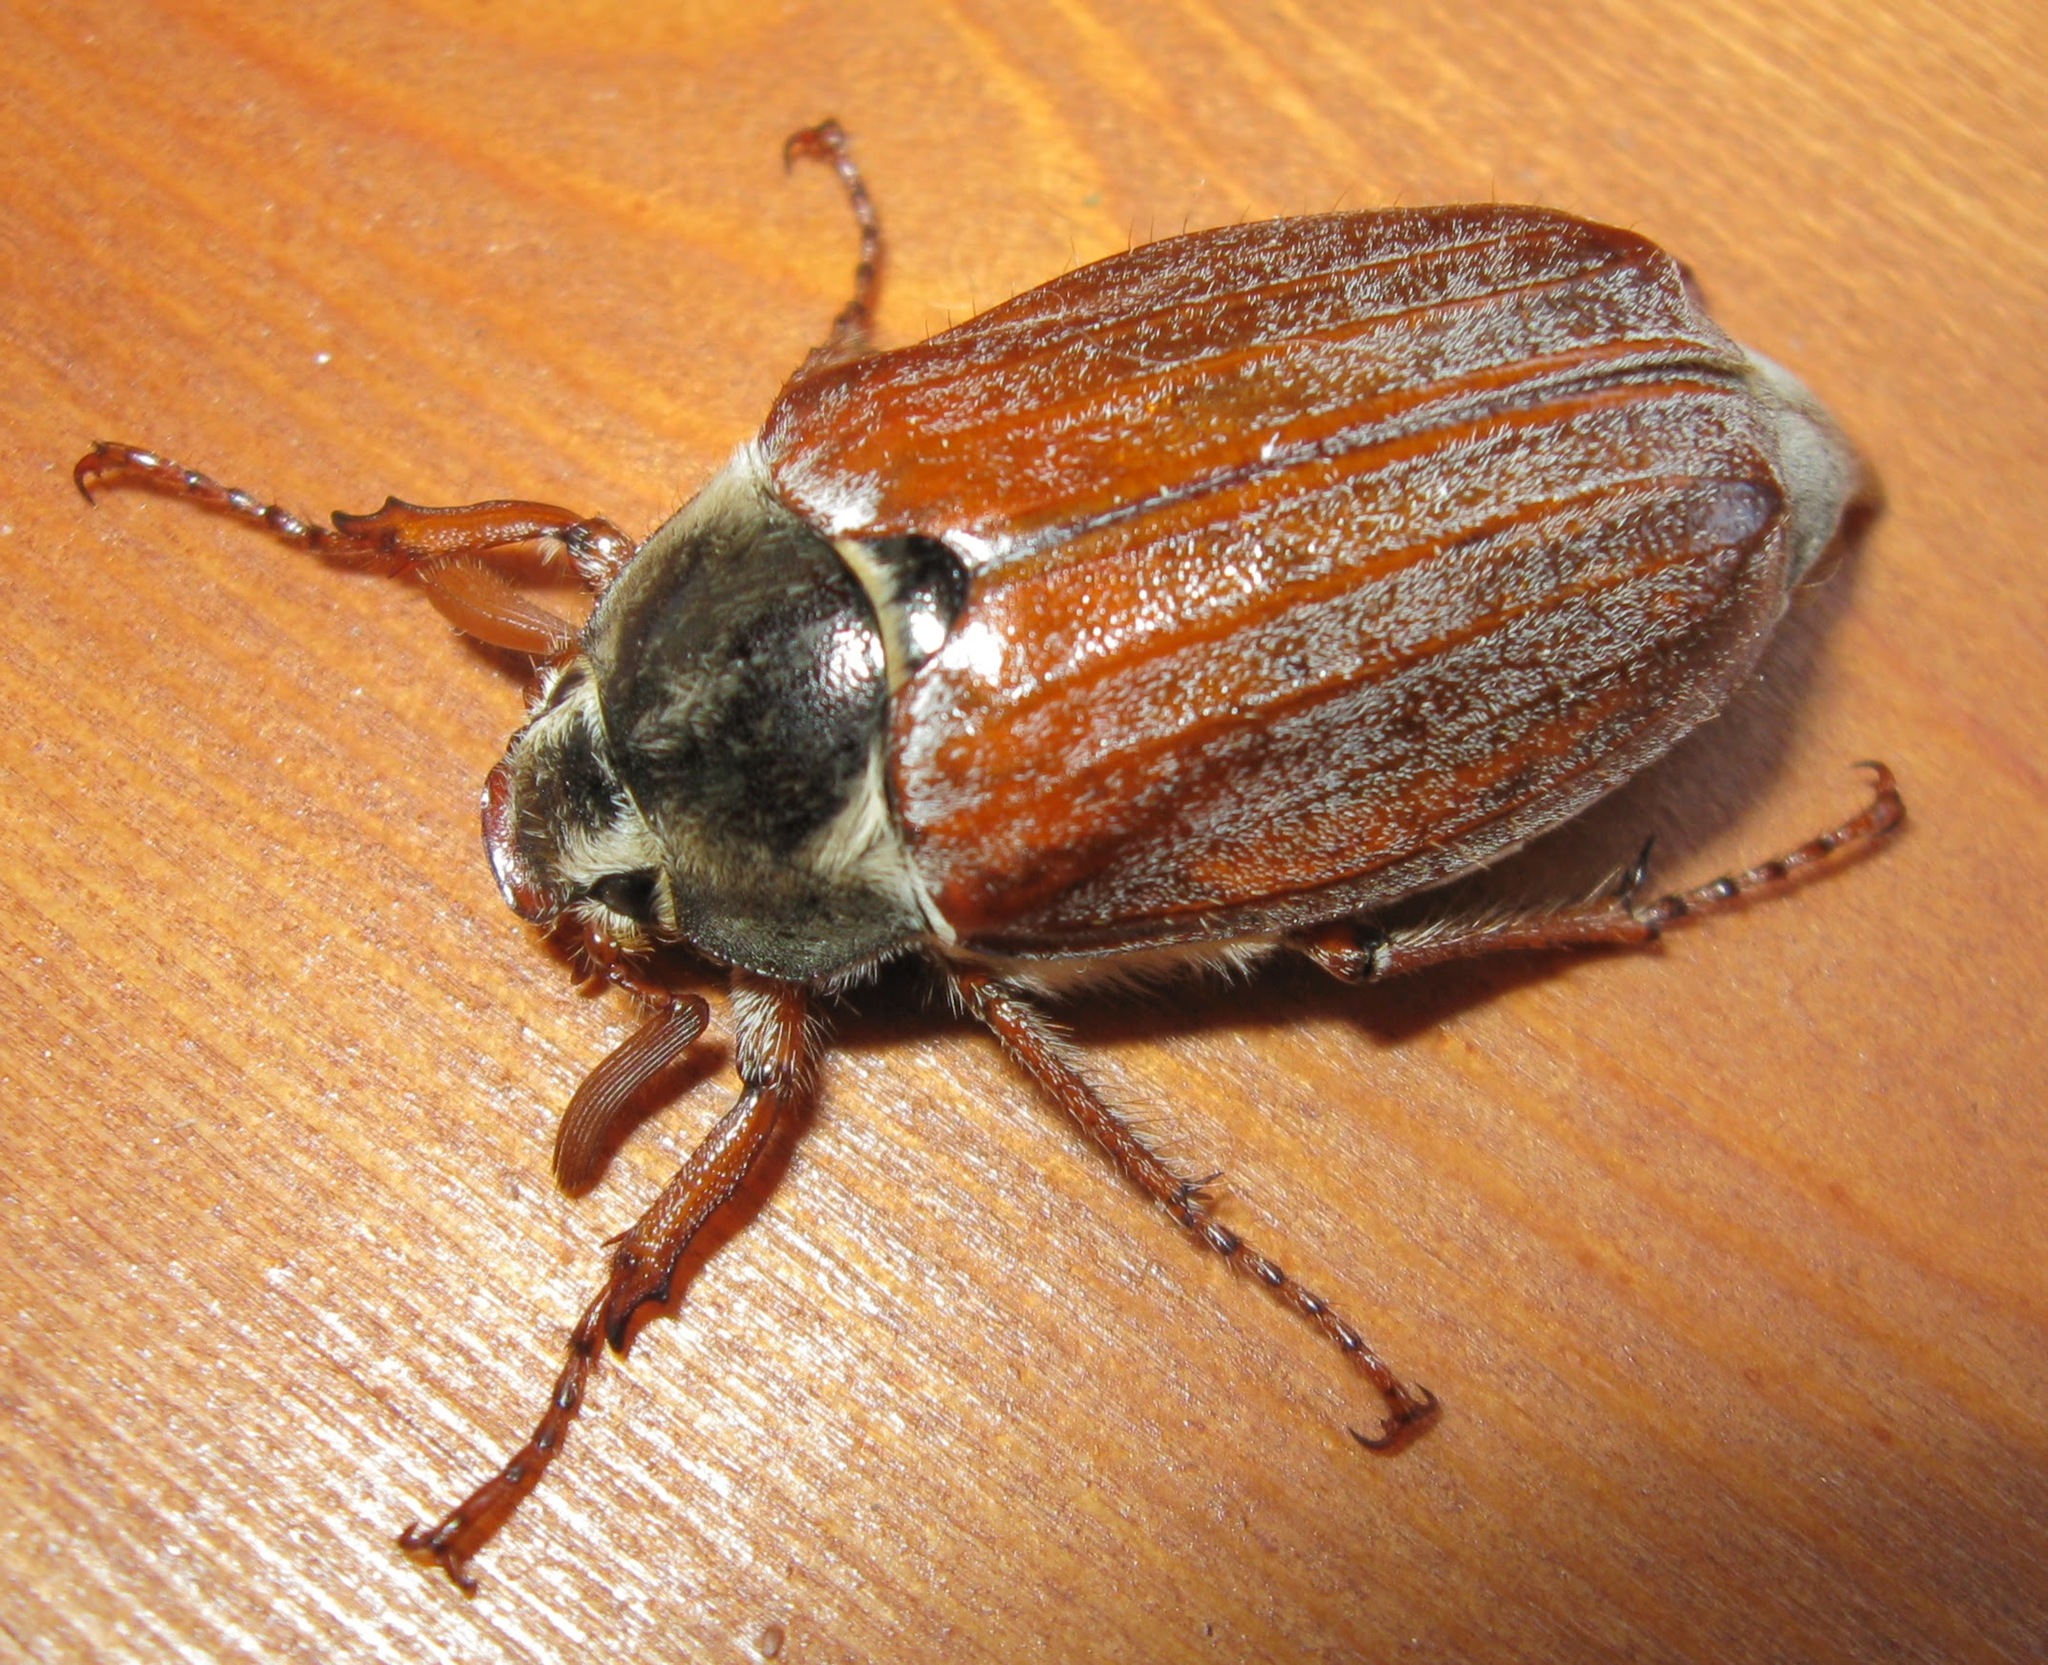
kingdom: Animalia
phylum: Arthropoda
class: Insecta
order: Coleoptera
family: Scarabaeidae
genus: Melolontha
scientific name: Melolontha melolontha
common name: Cockchafer maybeetle
